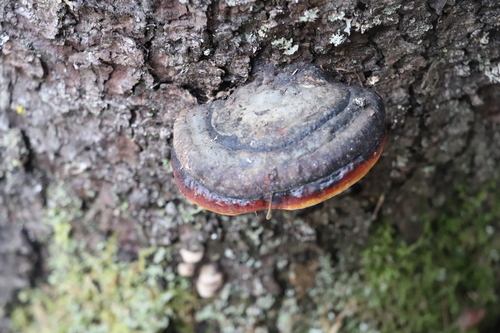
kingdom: Fungi
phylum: Basidiomycota
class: Agaricomycetes
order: Polyporales
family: Fomitopsidaceae
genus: Fomitopsis
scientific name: Fomitopsis pinicola
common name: Red-belted bracket
